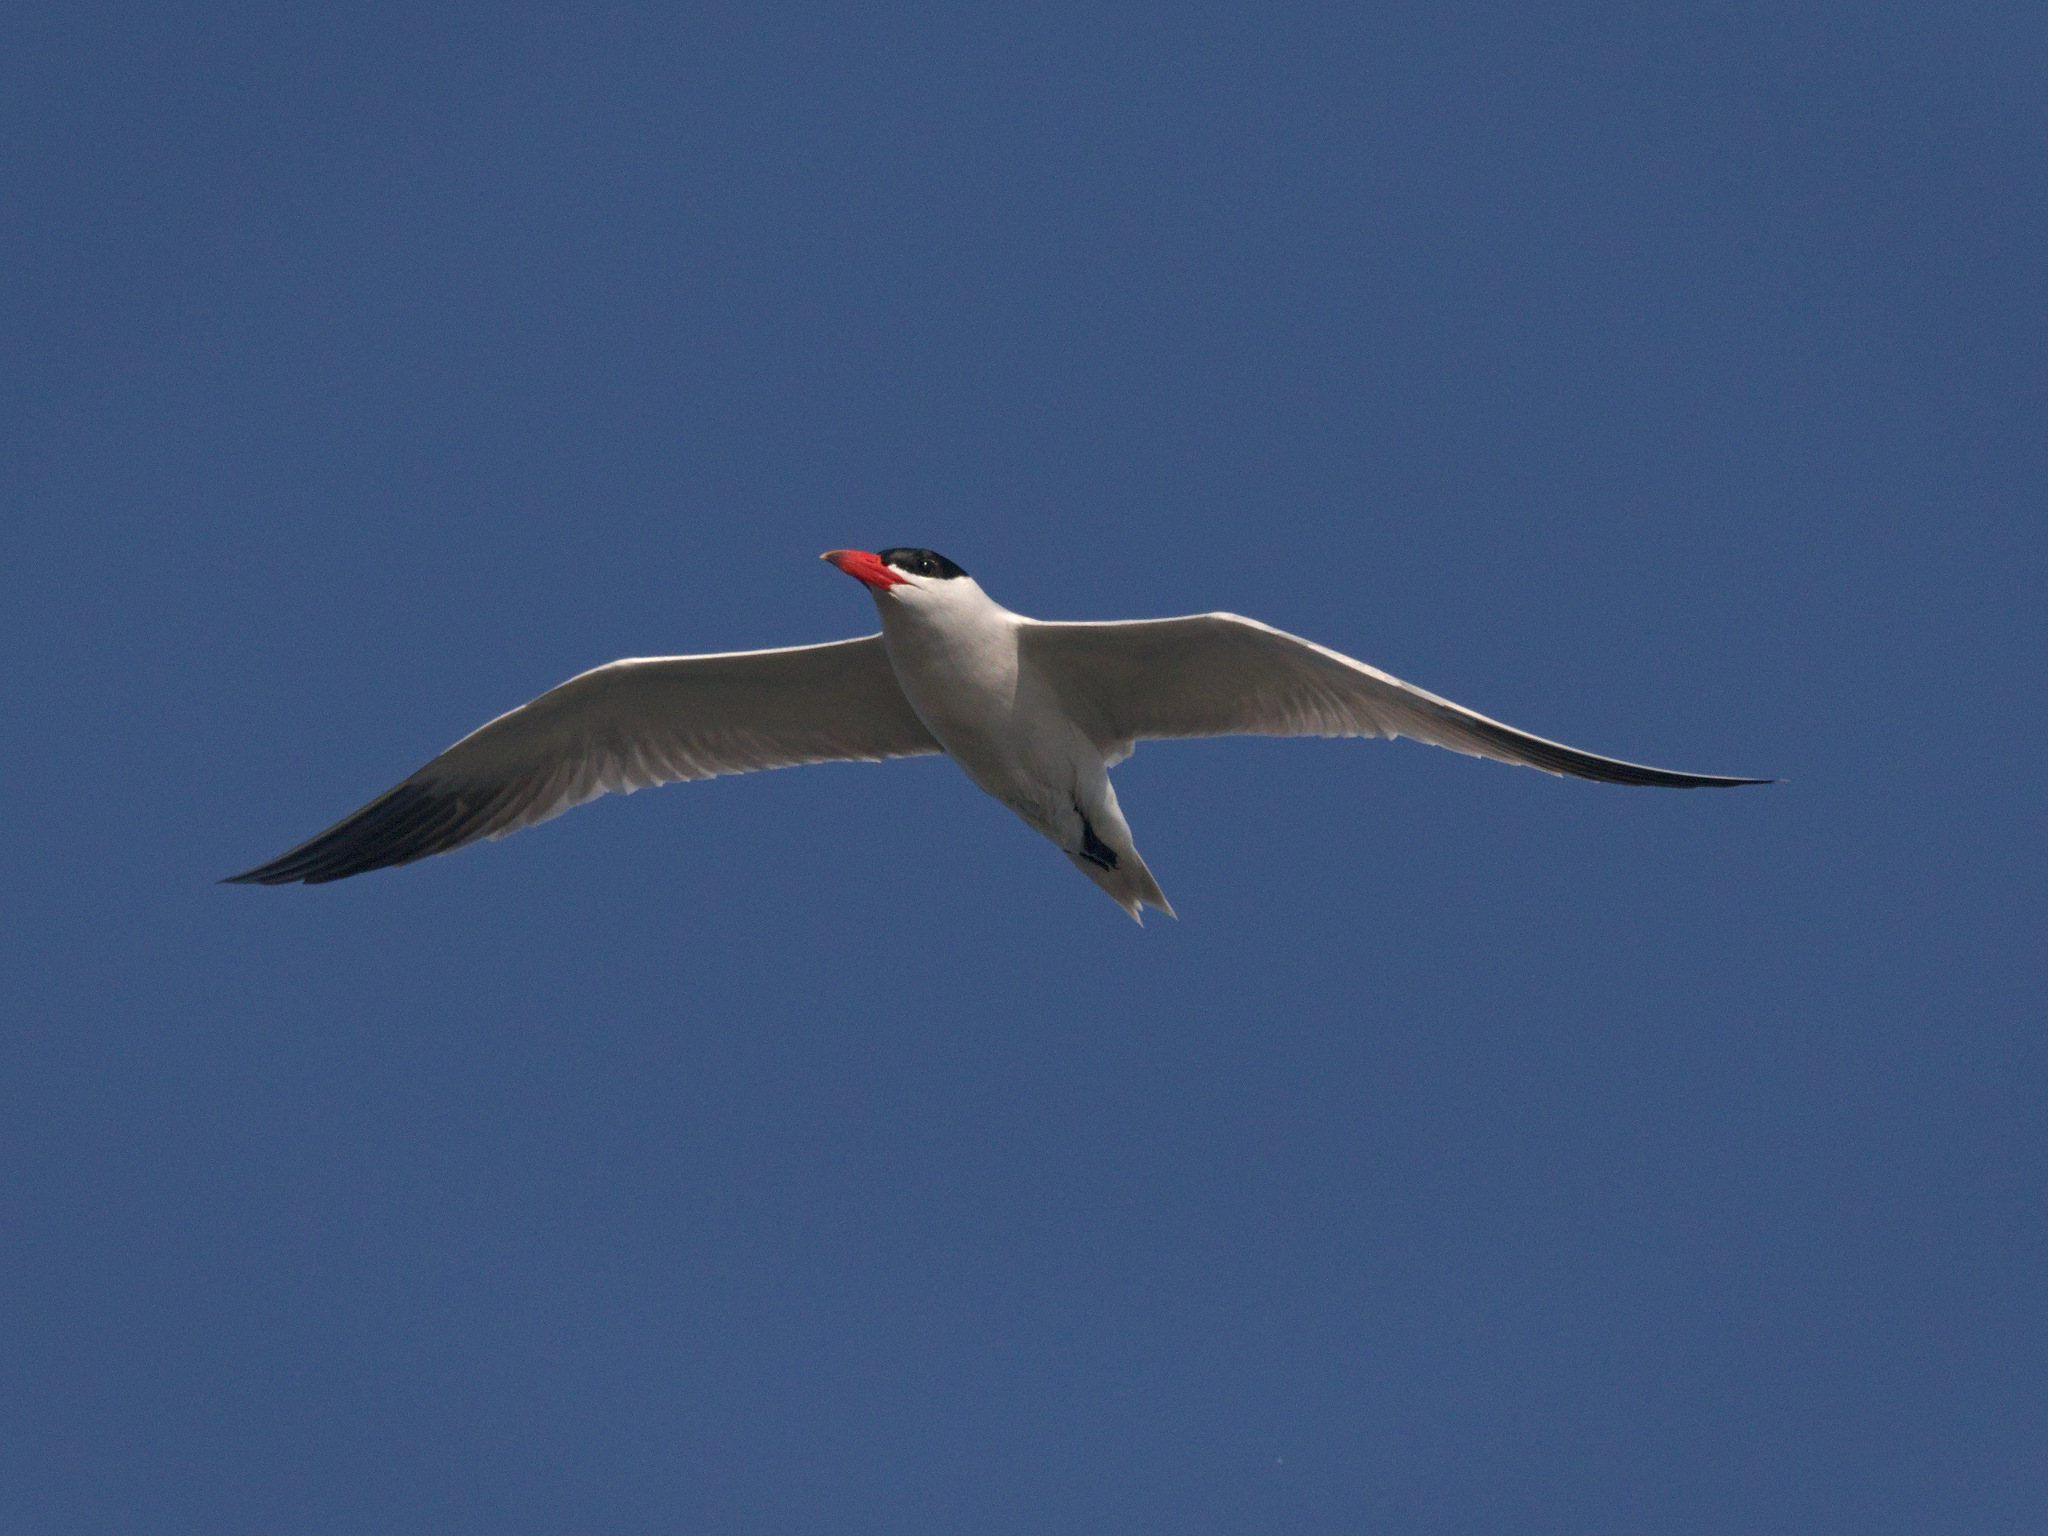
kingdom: Animalia
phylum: Chordata
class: Aves
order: Charadriiformes
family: Laridae
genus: Hydroprogne
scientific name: Hydroprogne caspia
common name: Caspian tern
